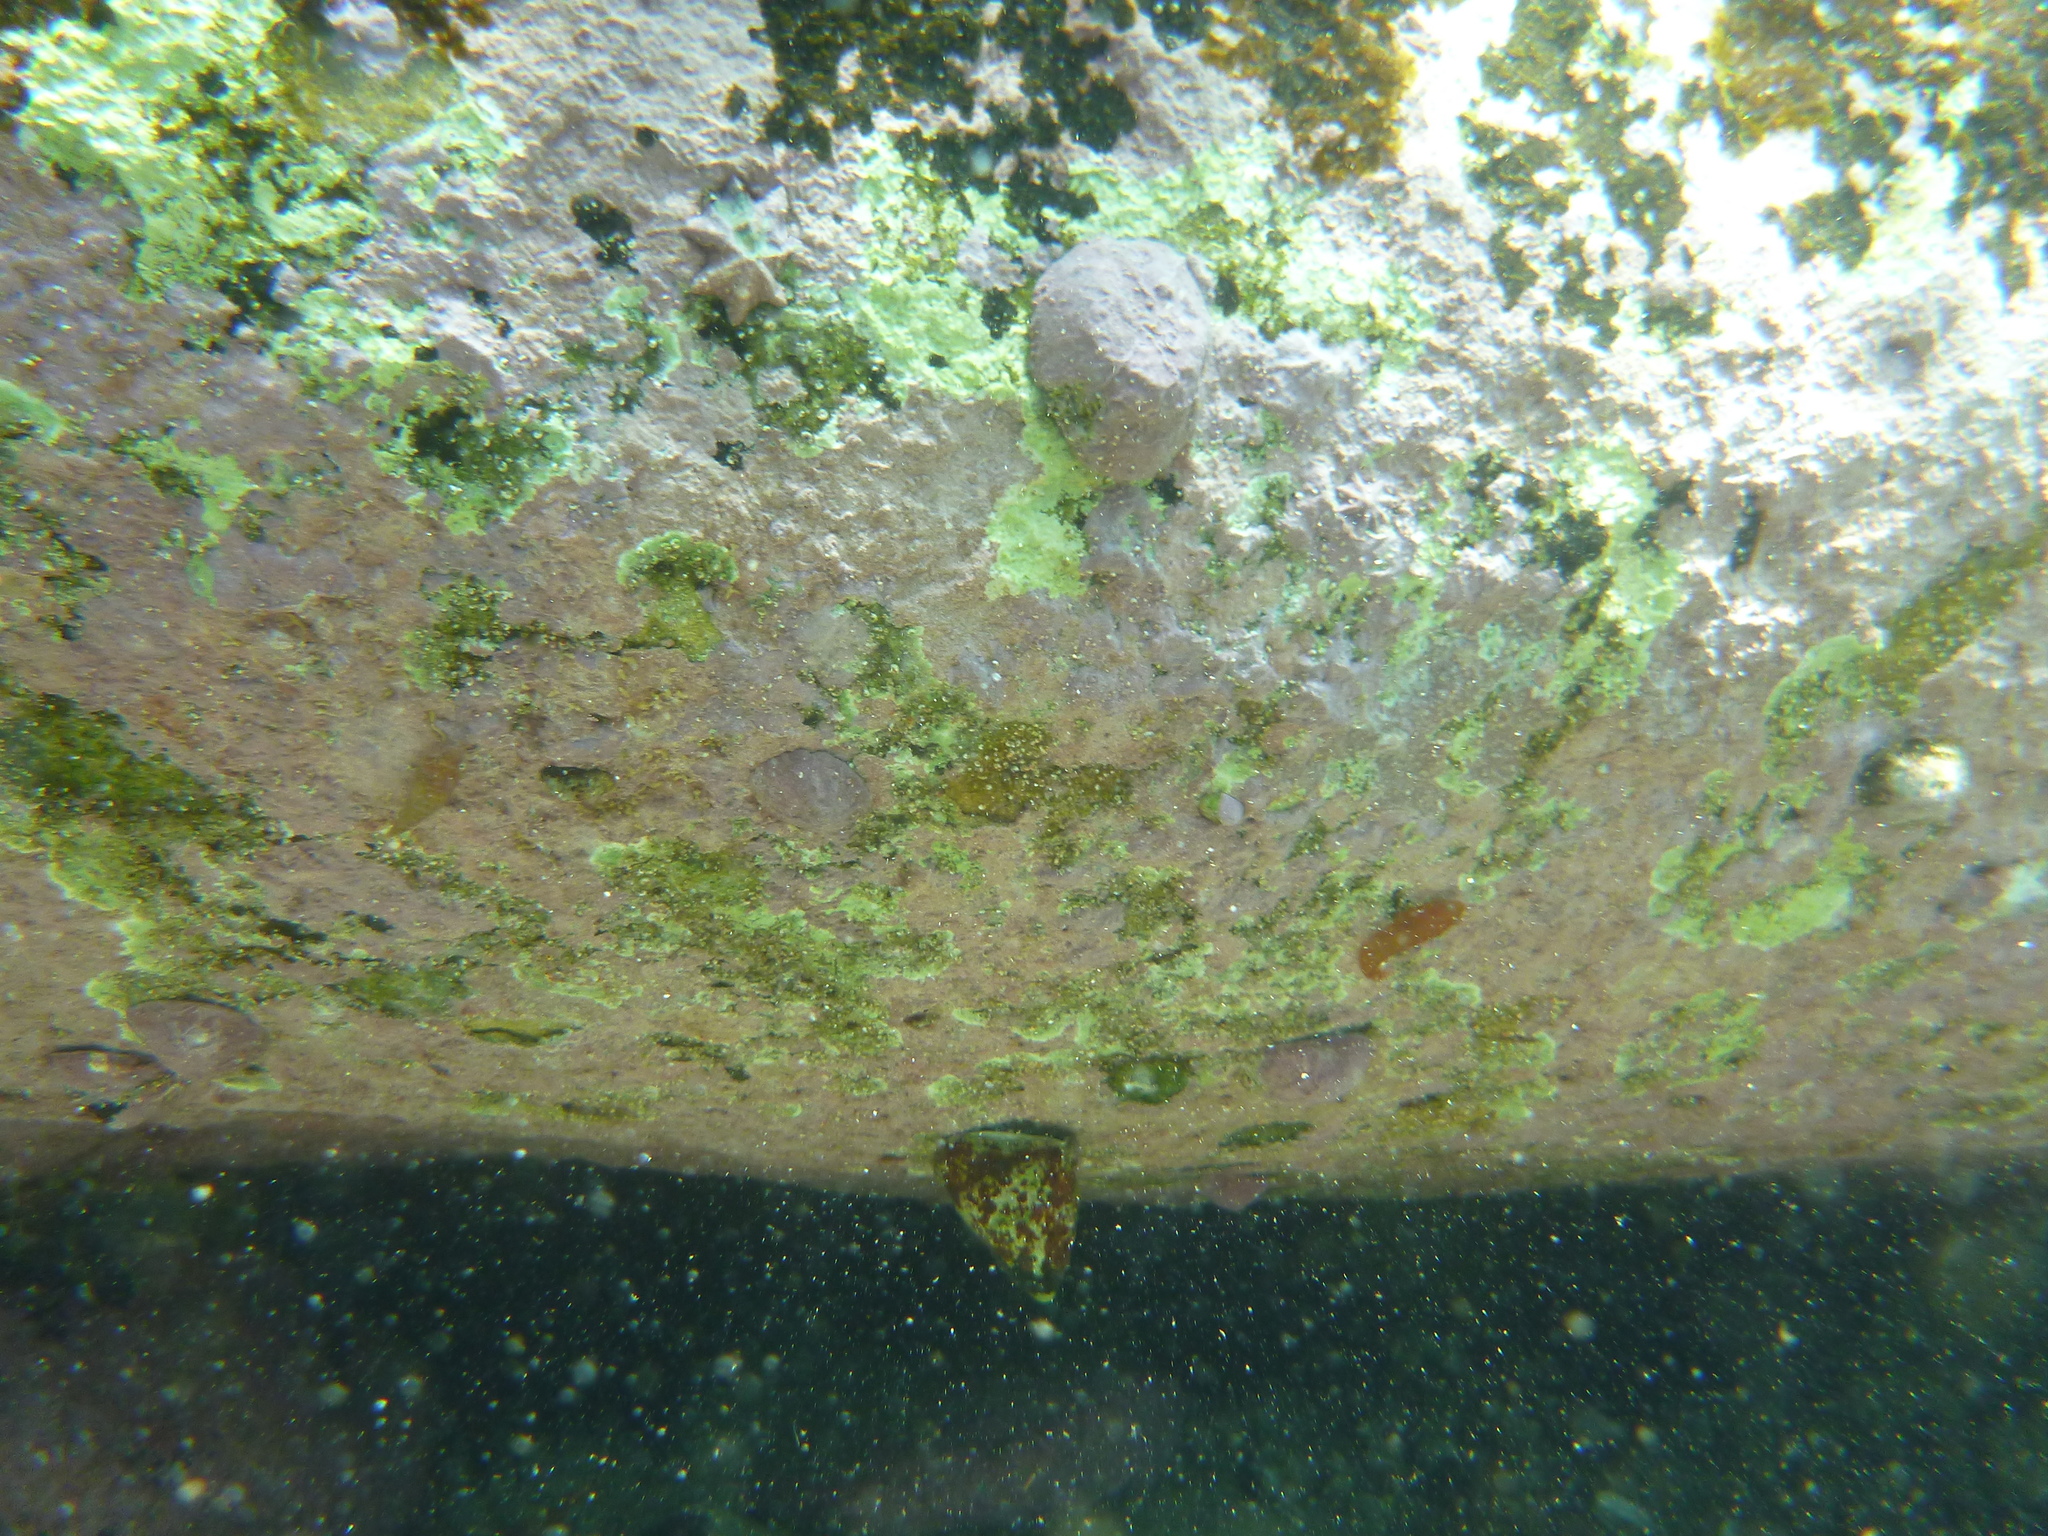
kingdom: Animalia
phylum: Chordata
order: Gobiesociformes
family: Gobiesocidae
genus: Cochleoceps
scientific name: Cochleoceps orientalis
